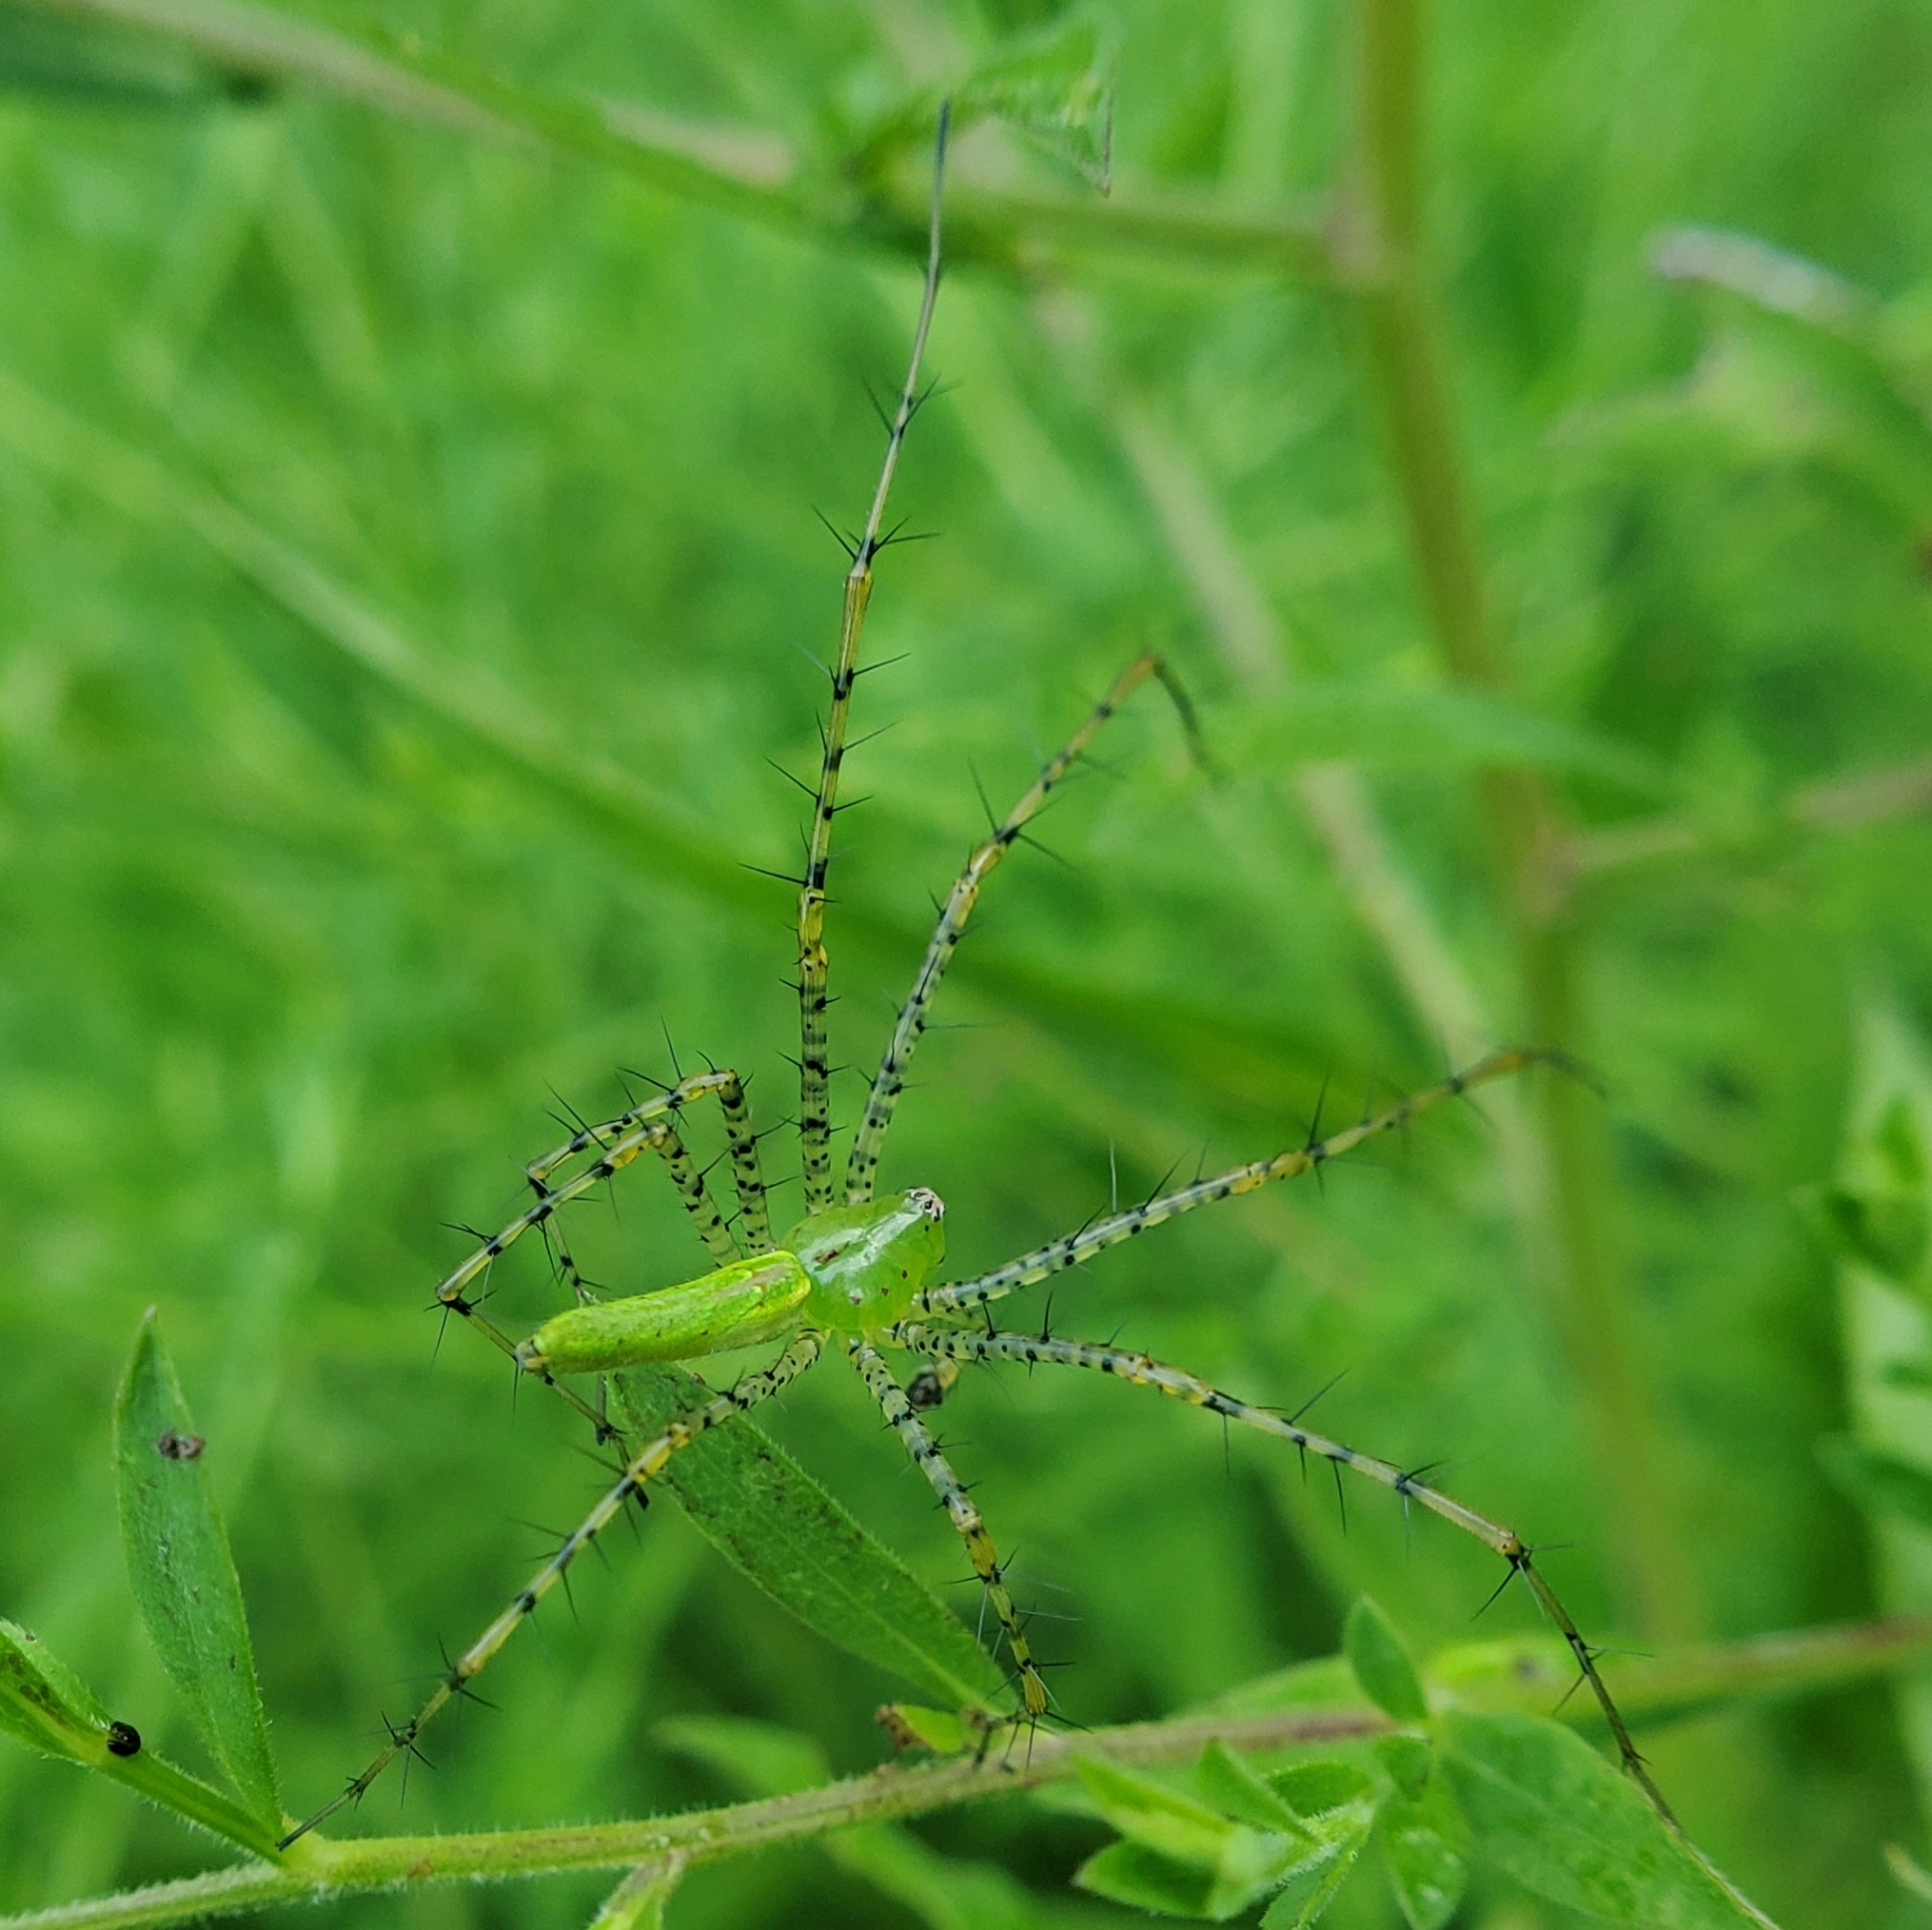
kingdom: Animalia
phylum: Arthropoda
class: Arachnida
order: Araneae
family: Oxyopidae
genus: Peucetia
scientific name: Peucetia viridans
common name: Lynx spiders
